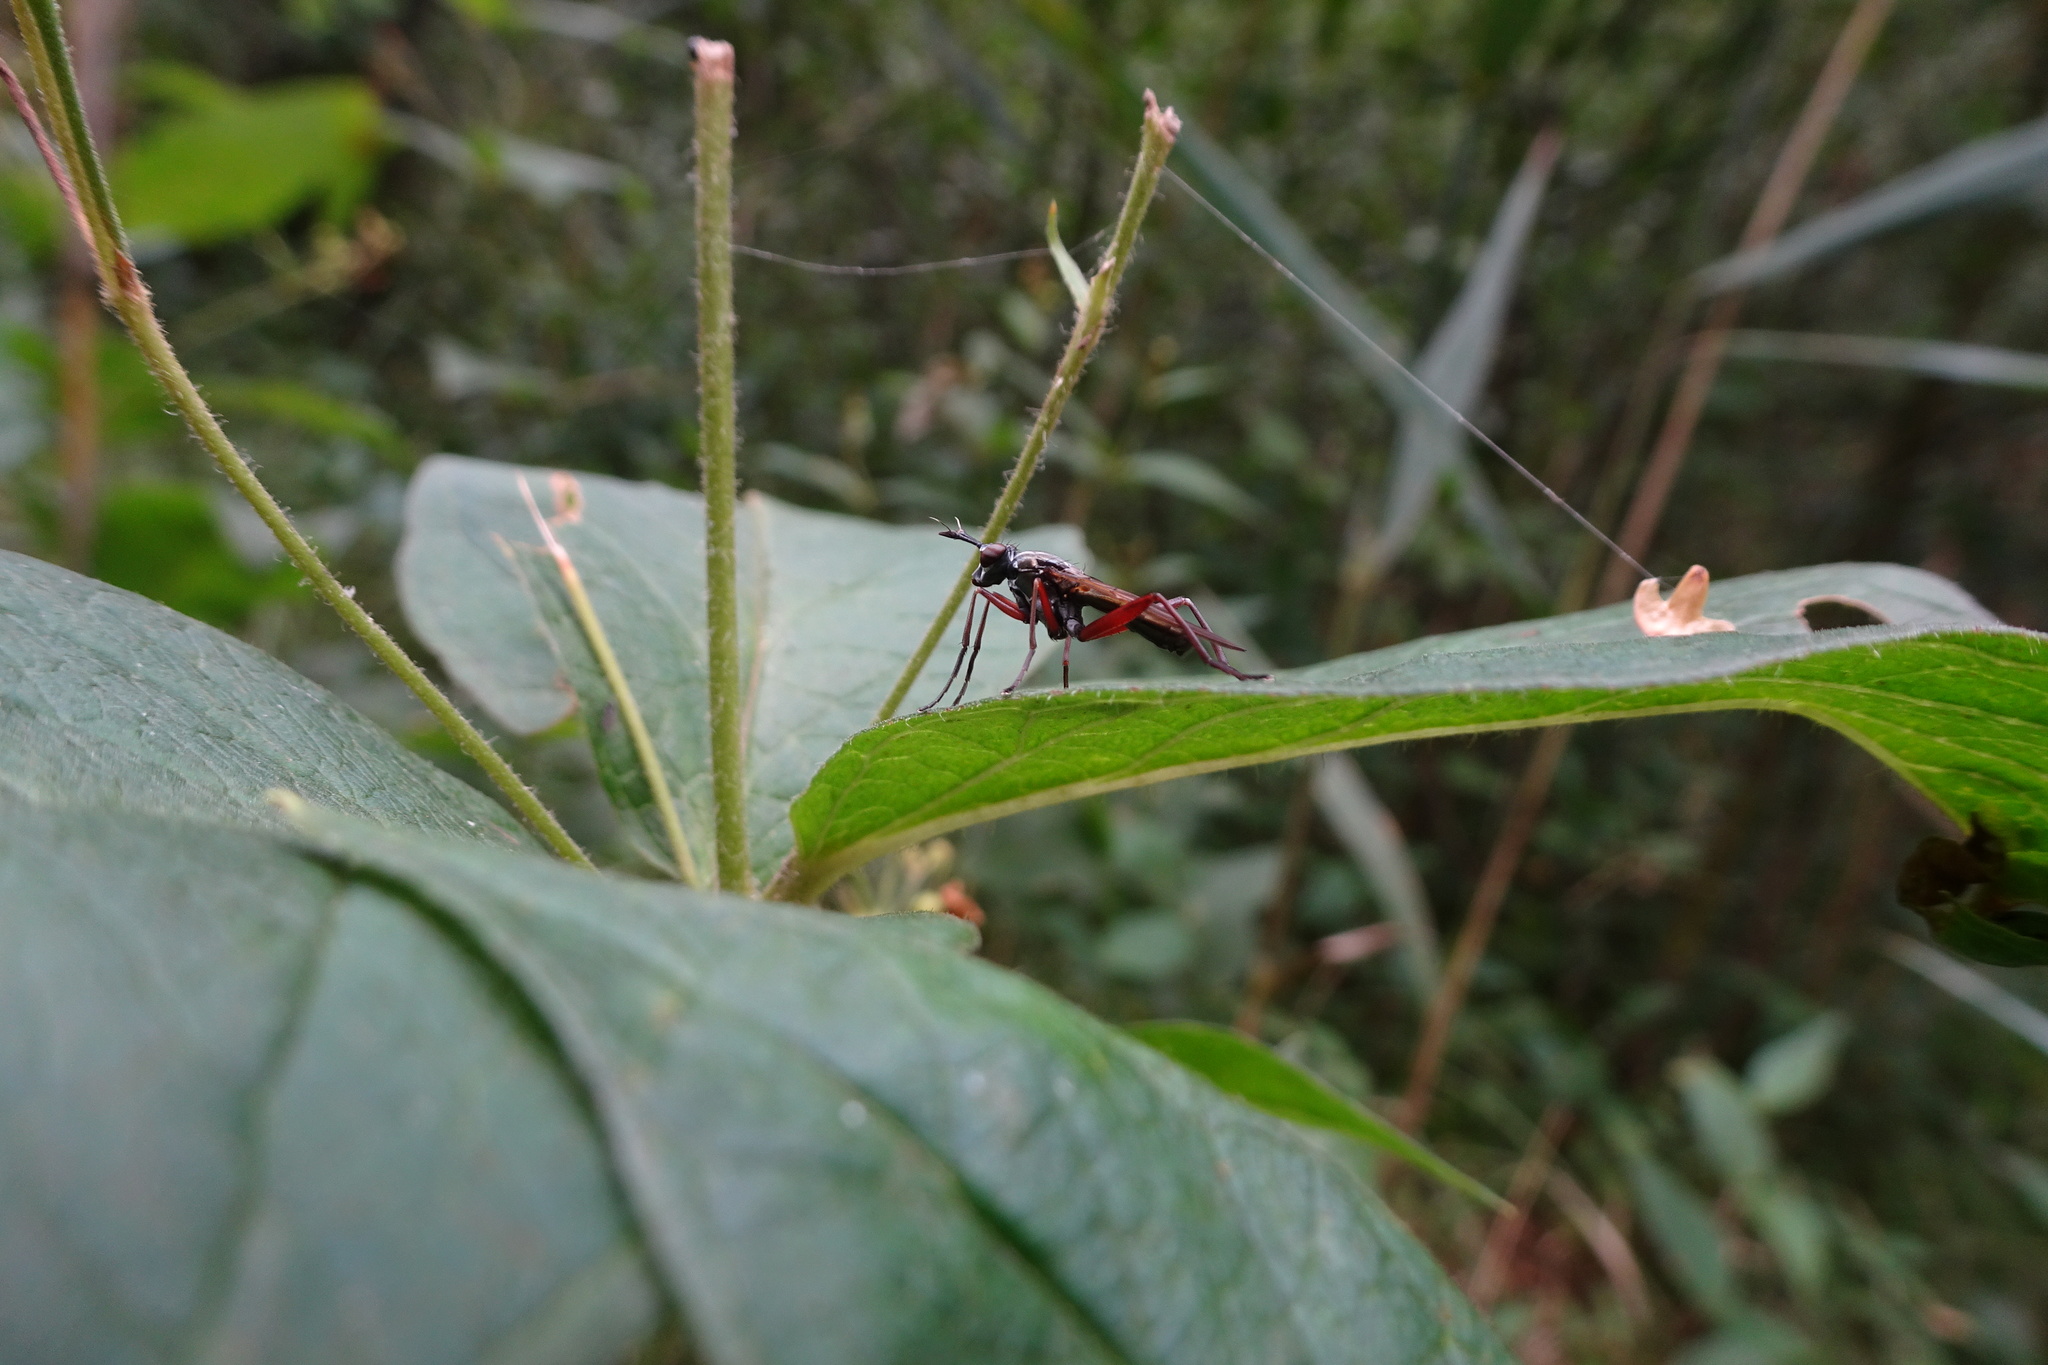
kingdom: Animalia
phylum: Arthropoda
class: Insecta
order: Diptera
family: Sciomyzidae
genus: Sepedon
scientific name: Sepedon sphegea
